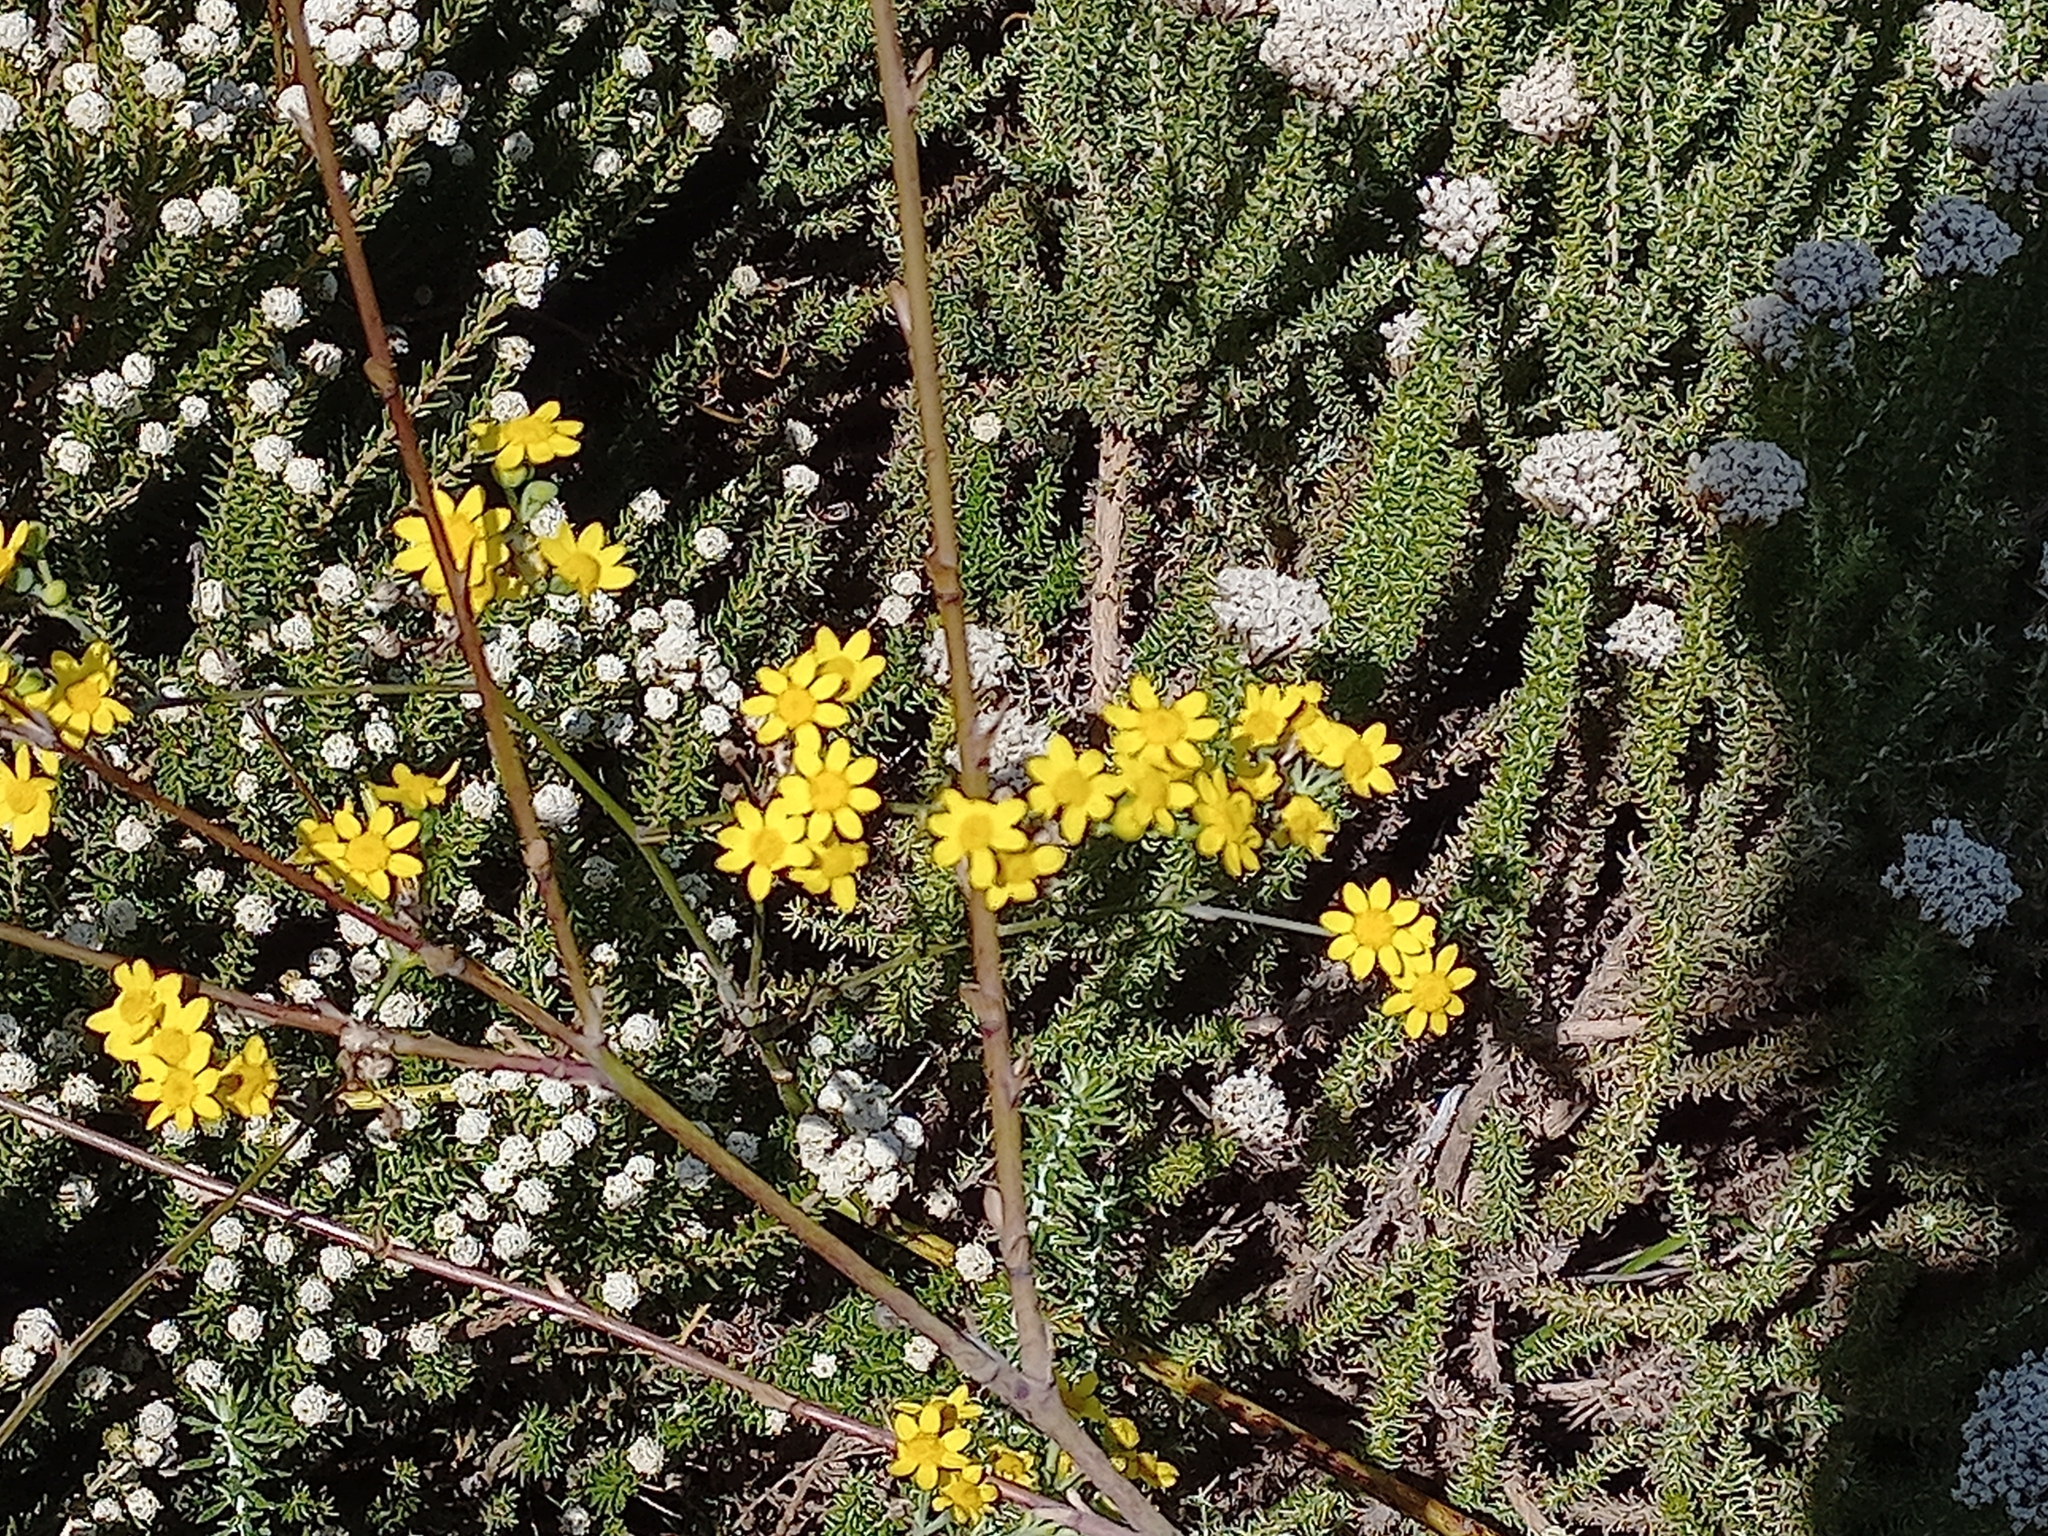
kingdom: Plantae
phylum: Tracheophyta
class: Magnoliopsida
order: Asterales
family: Asteraceae
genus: Othonna
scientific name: Othonna quinquedentata
